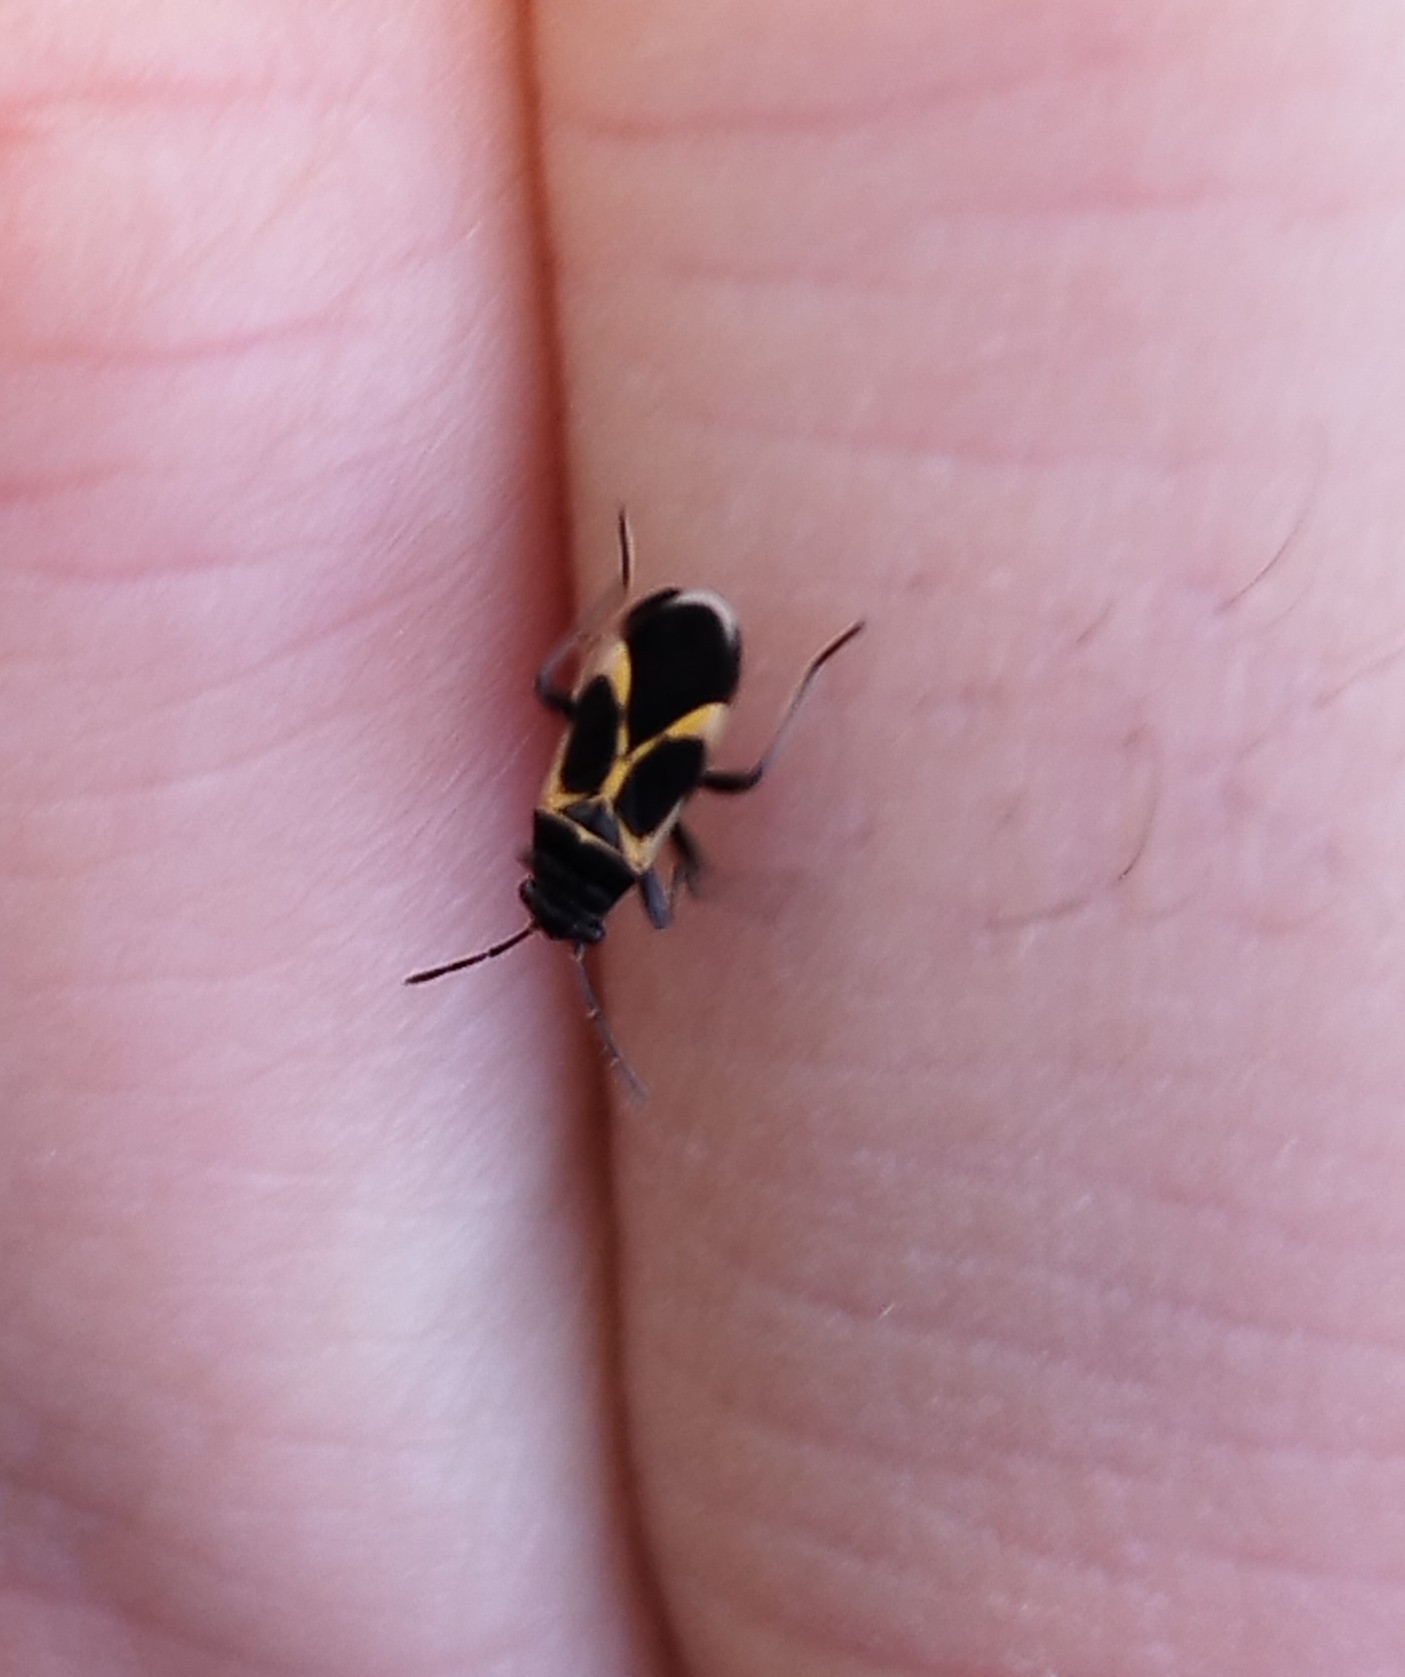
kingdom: Animalia
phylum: Arthropoda
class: Insecta
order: Hemiptera
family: Lygaeidae
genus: Ochrimnus
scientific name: Ochrimnus cinctipennis
